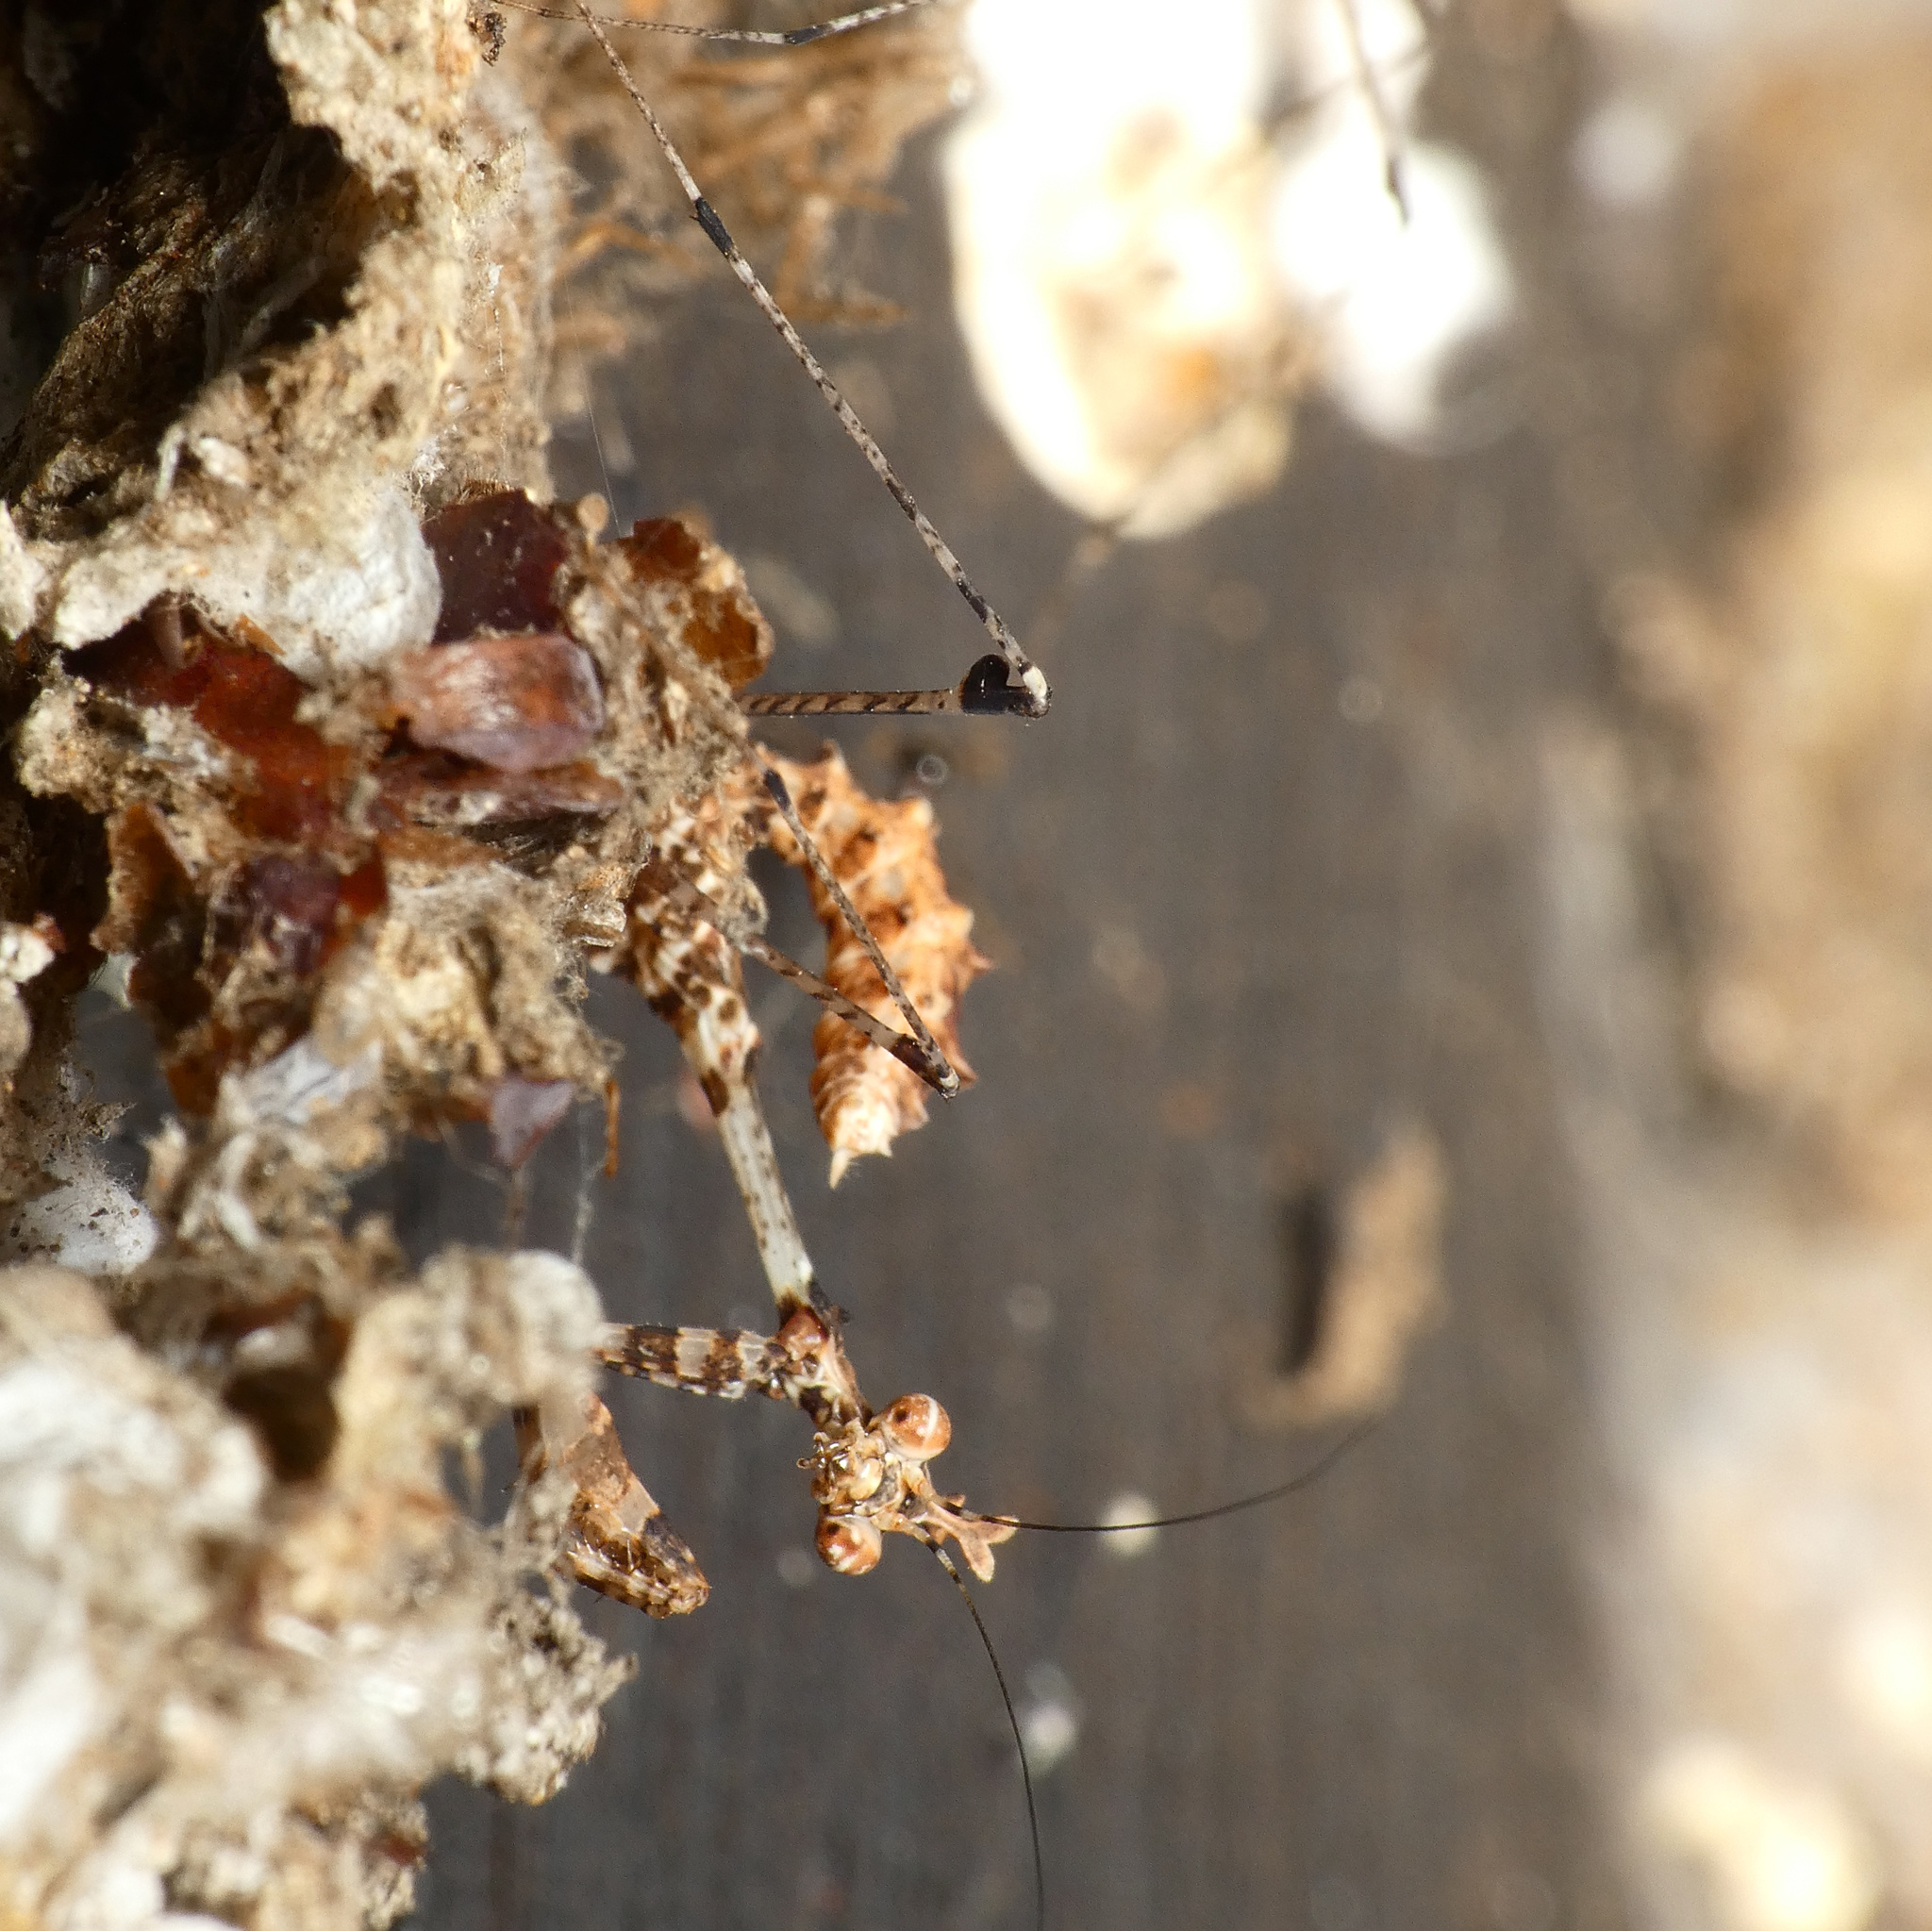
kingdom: Animalia
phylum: Arthropoda
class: Insecta
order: Mantodea
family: Hymenopodidae
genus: Sibylla
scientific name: Sibylla pretiosa
